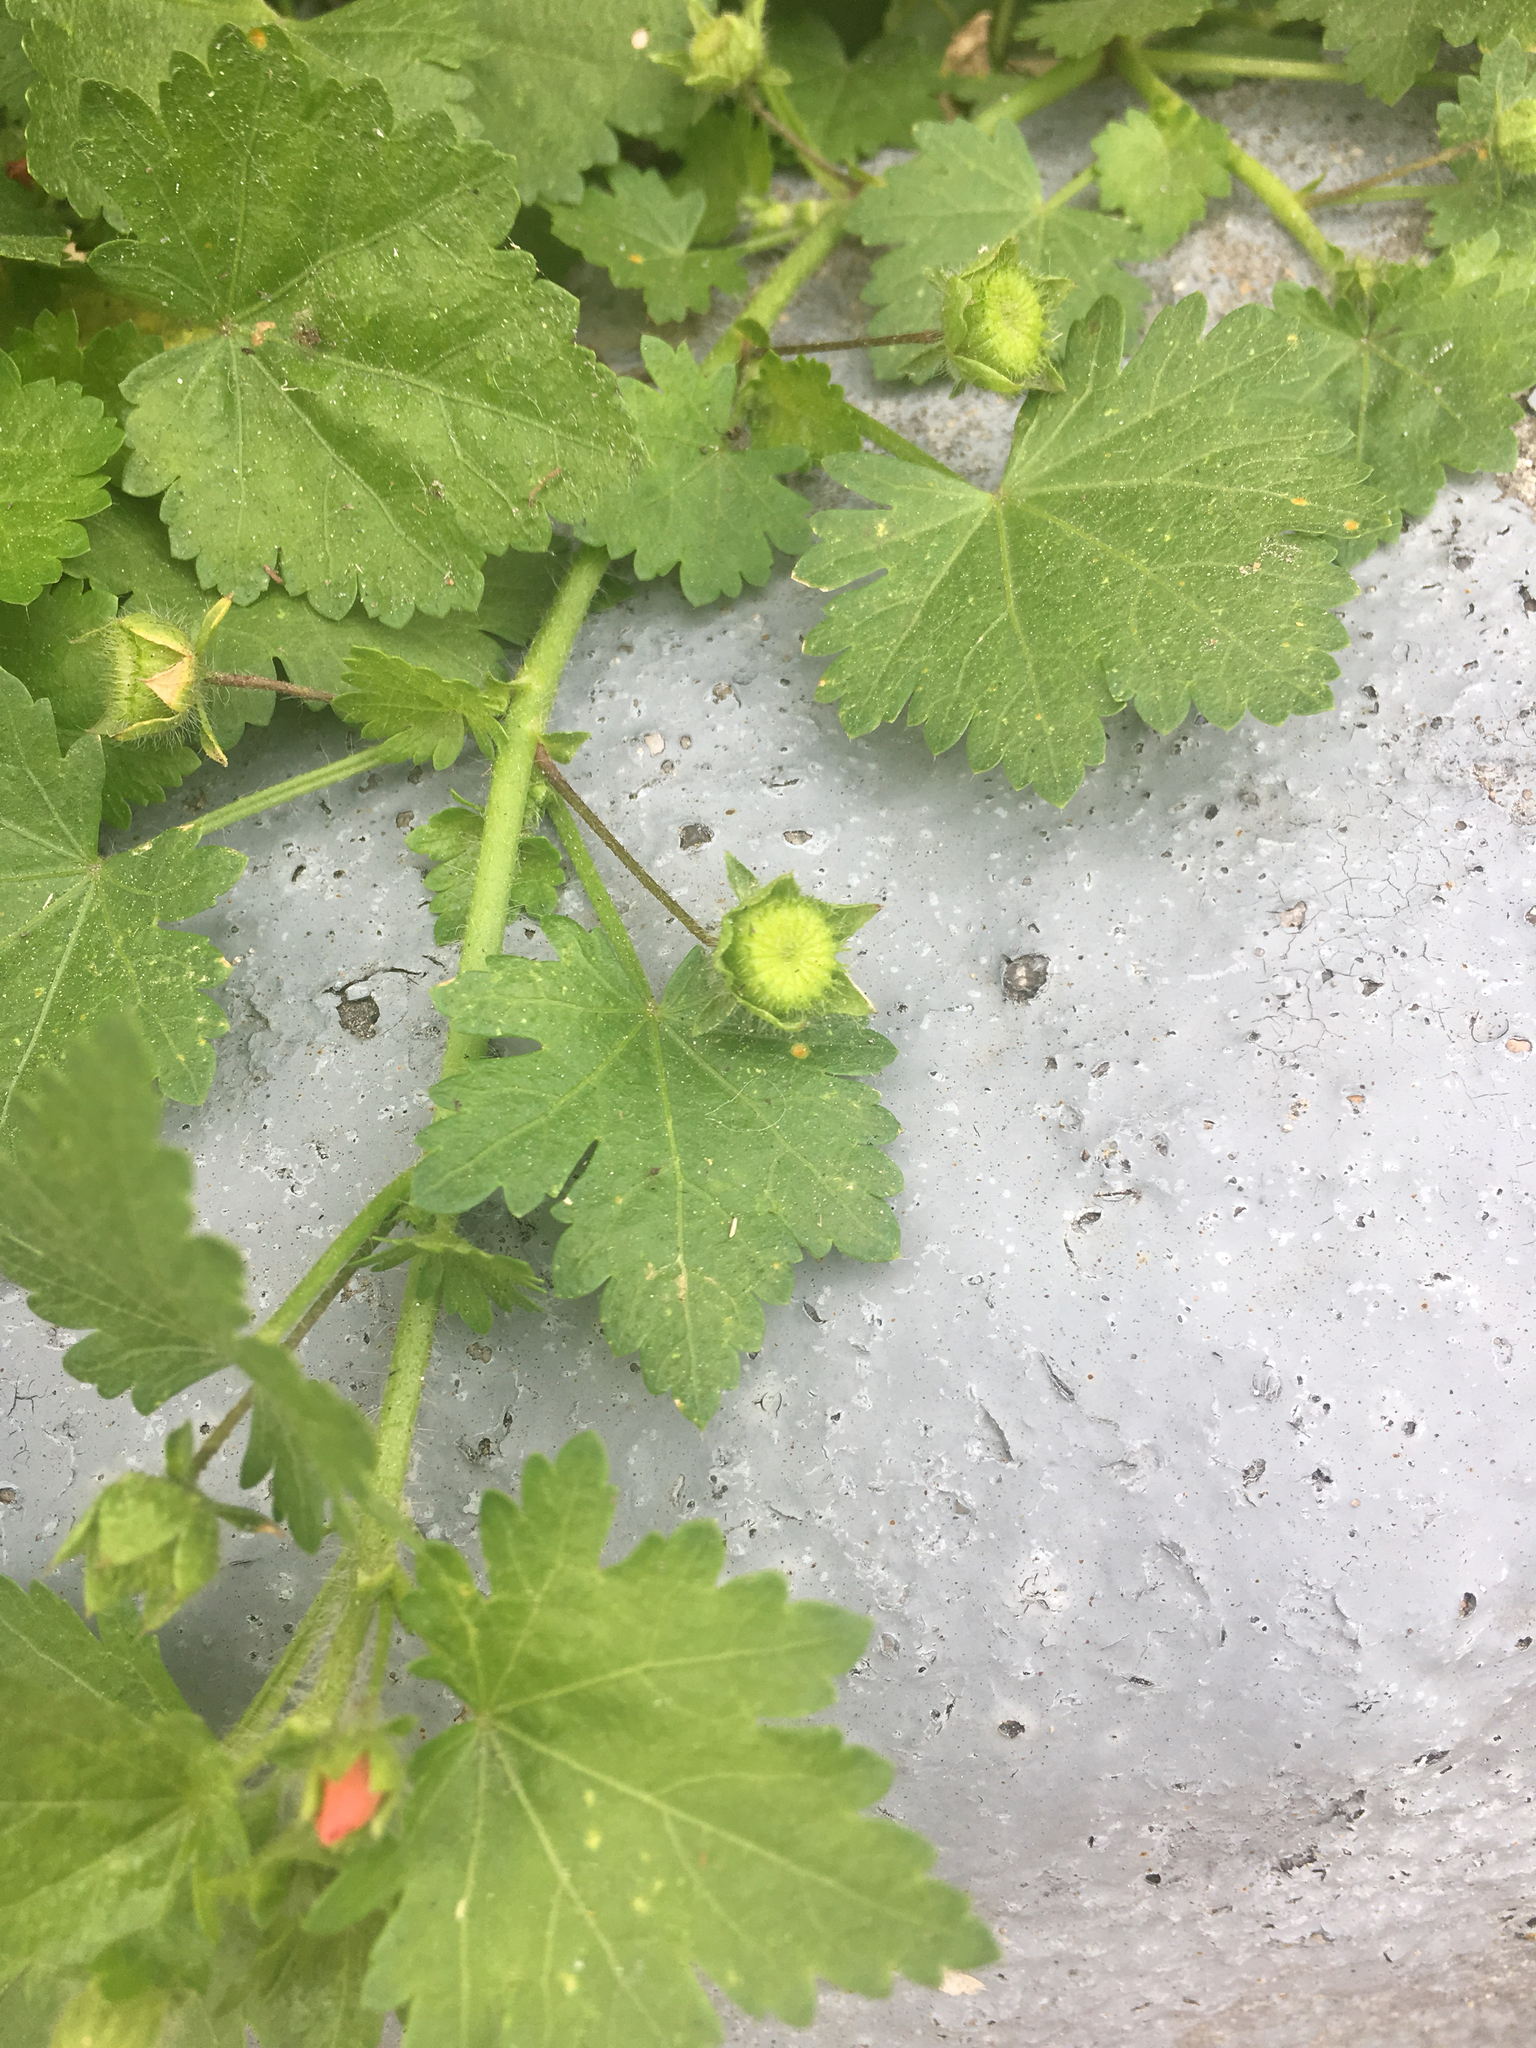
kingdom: Plantae
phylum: Tracheophyta
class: Magnoliopsida
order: Malvales
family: Malvaceae
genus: Modiola
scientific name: Modiola caroliniana
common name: Carolina bristlemallow
